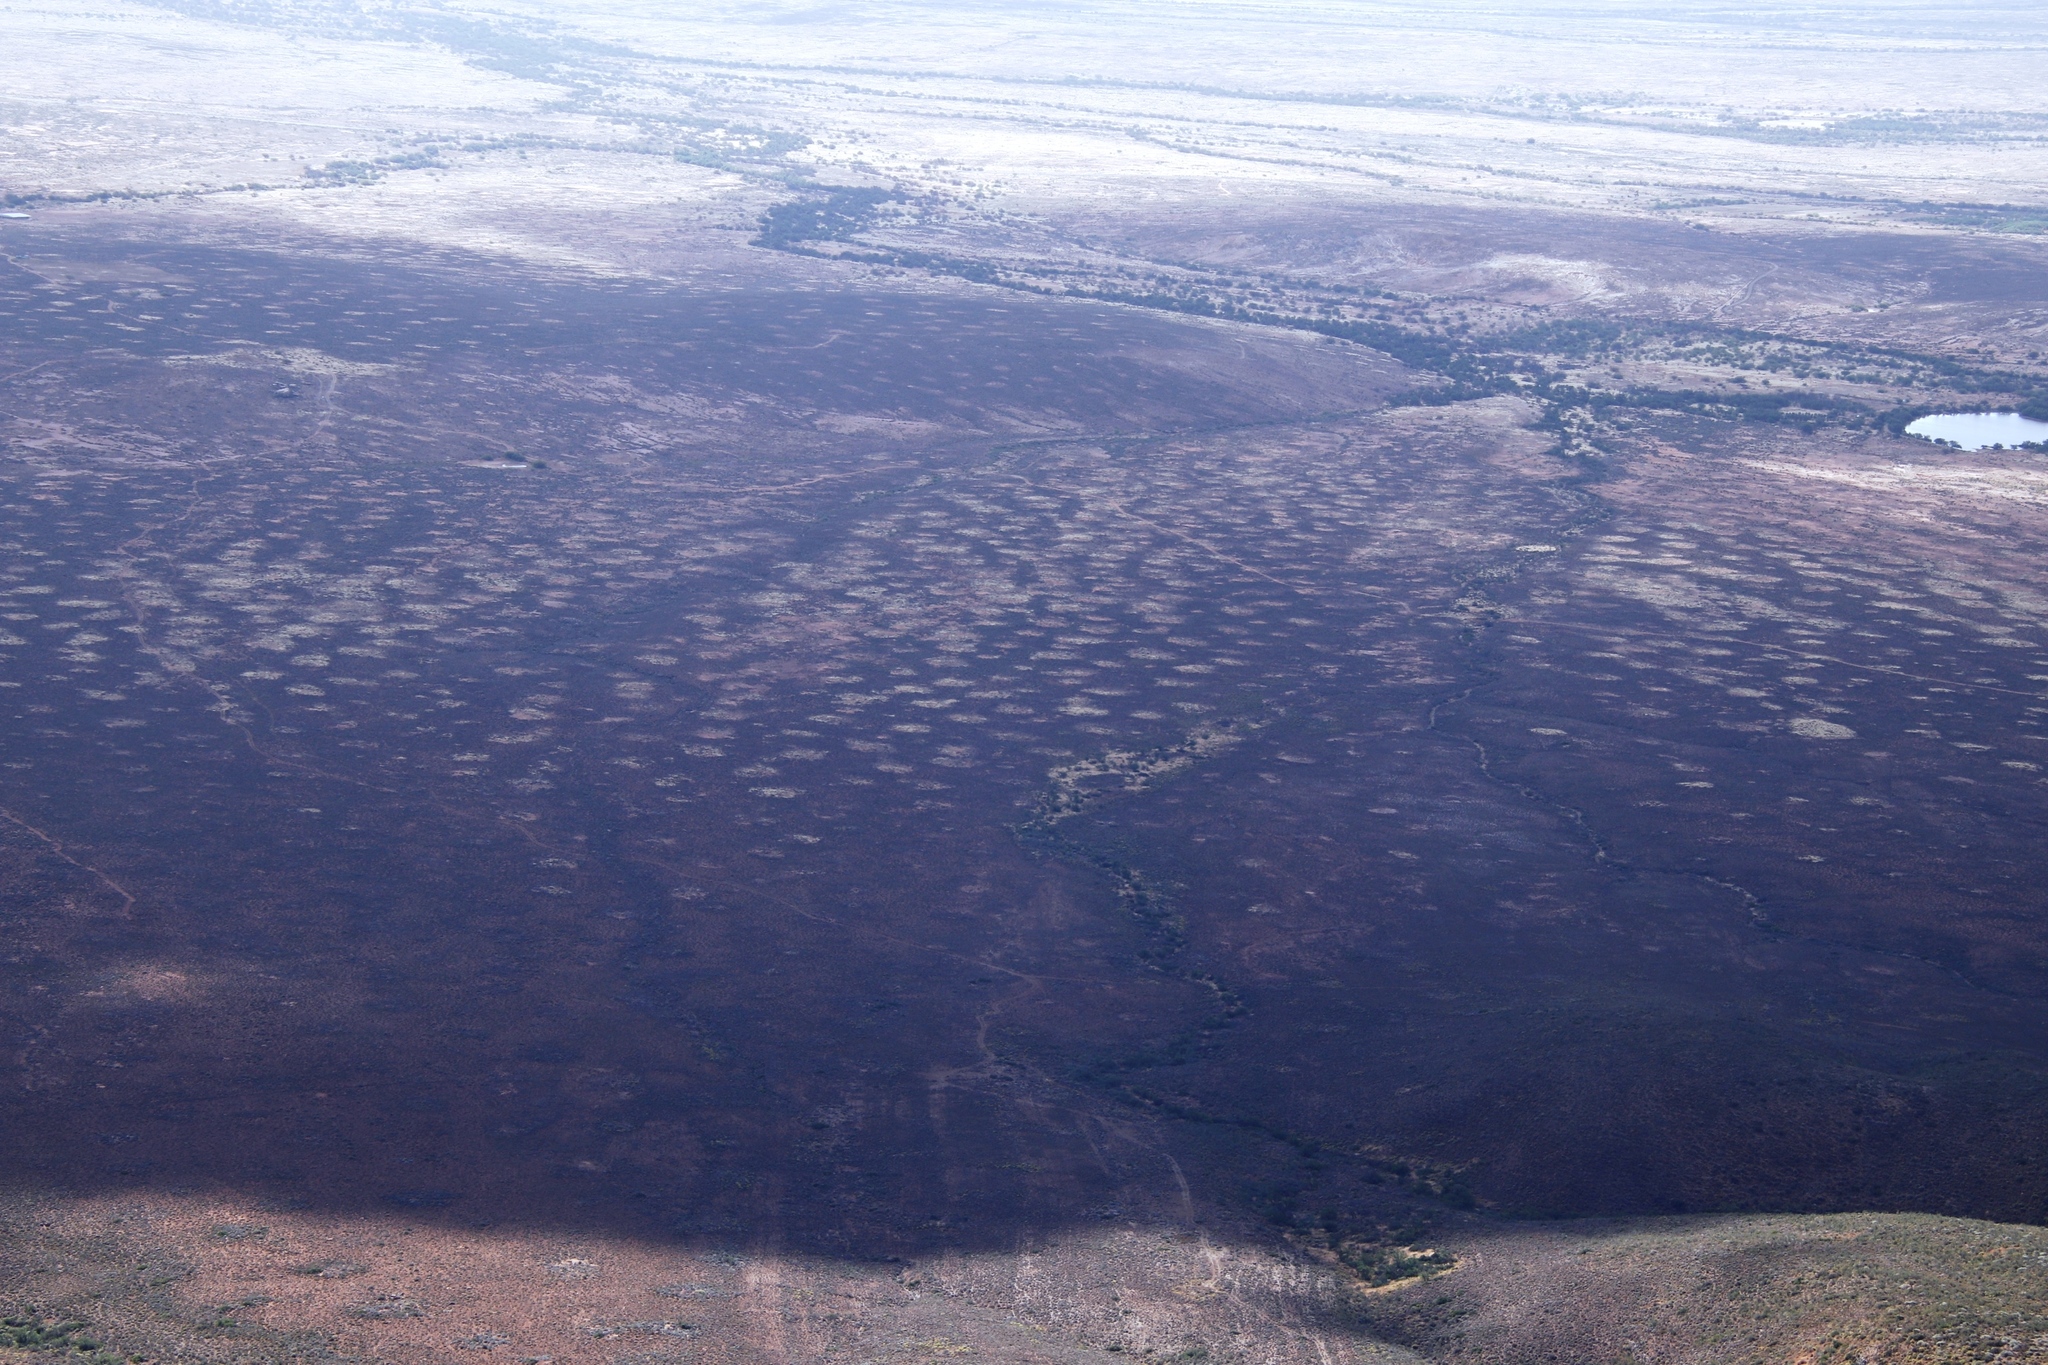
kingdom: Animalia
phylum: Arthropoda
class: Insecta
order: Blattodea
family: Hodotermitidae
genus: Microhodotermes
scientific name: Microhodotermes viator
